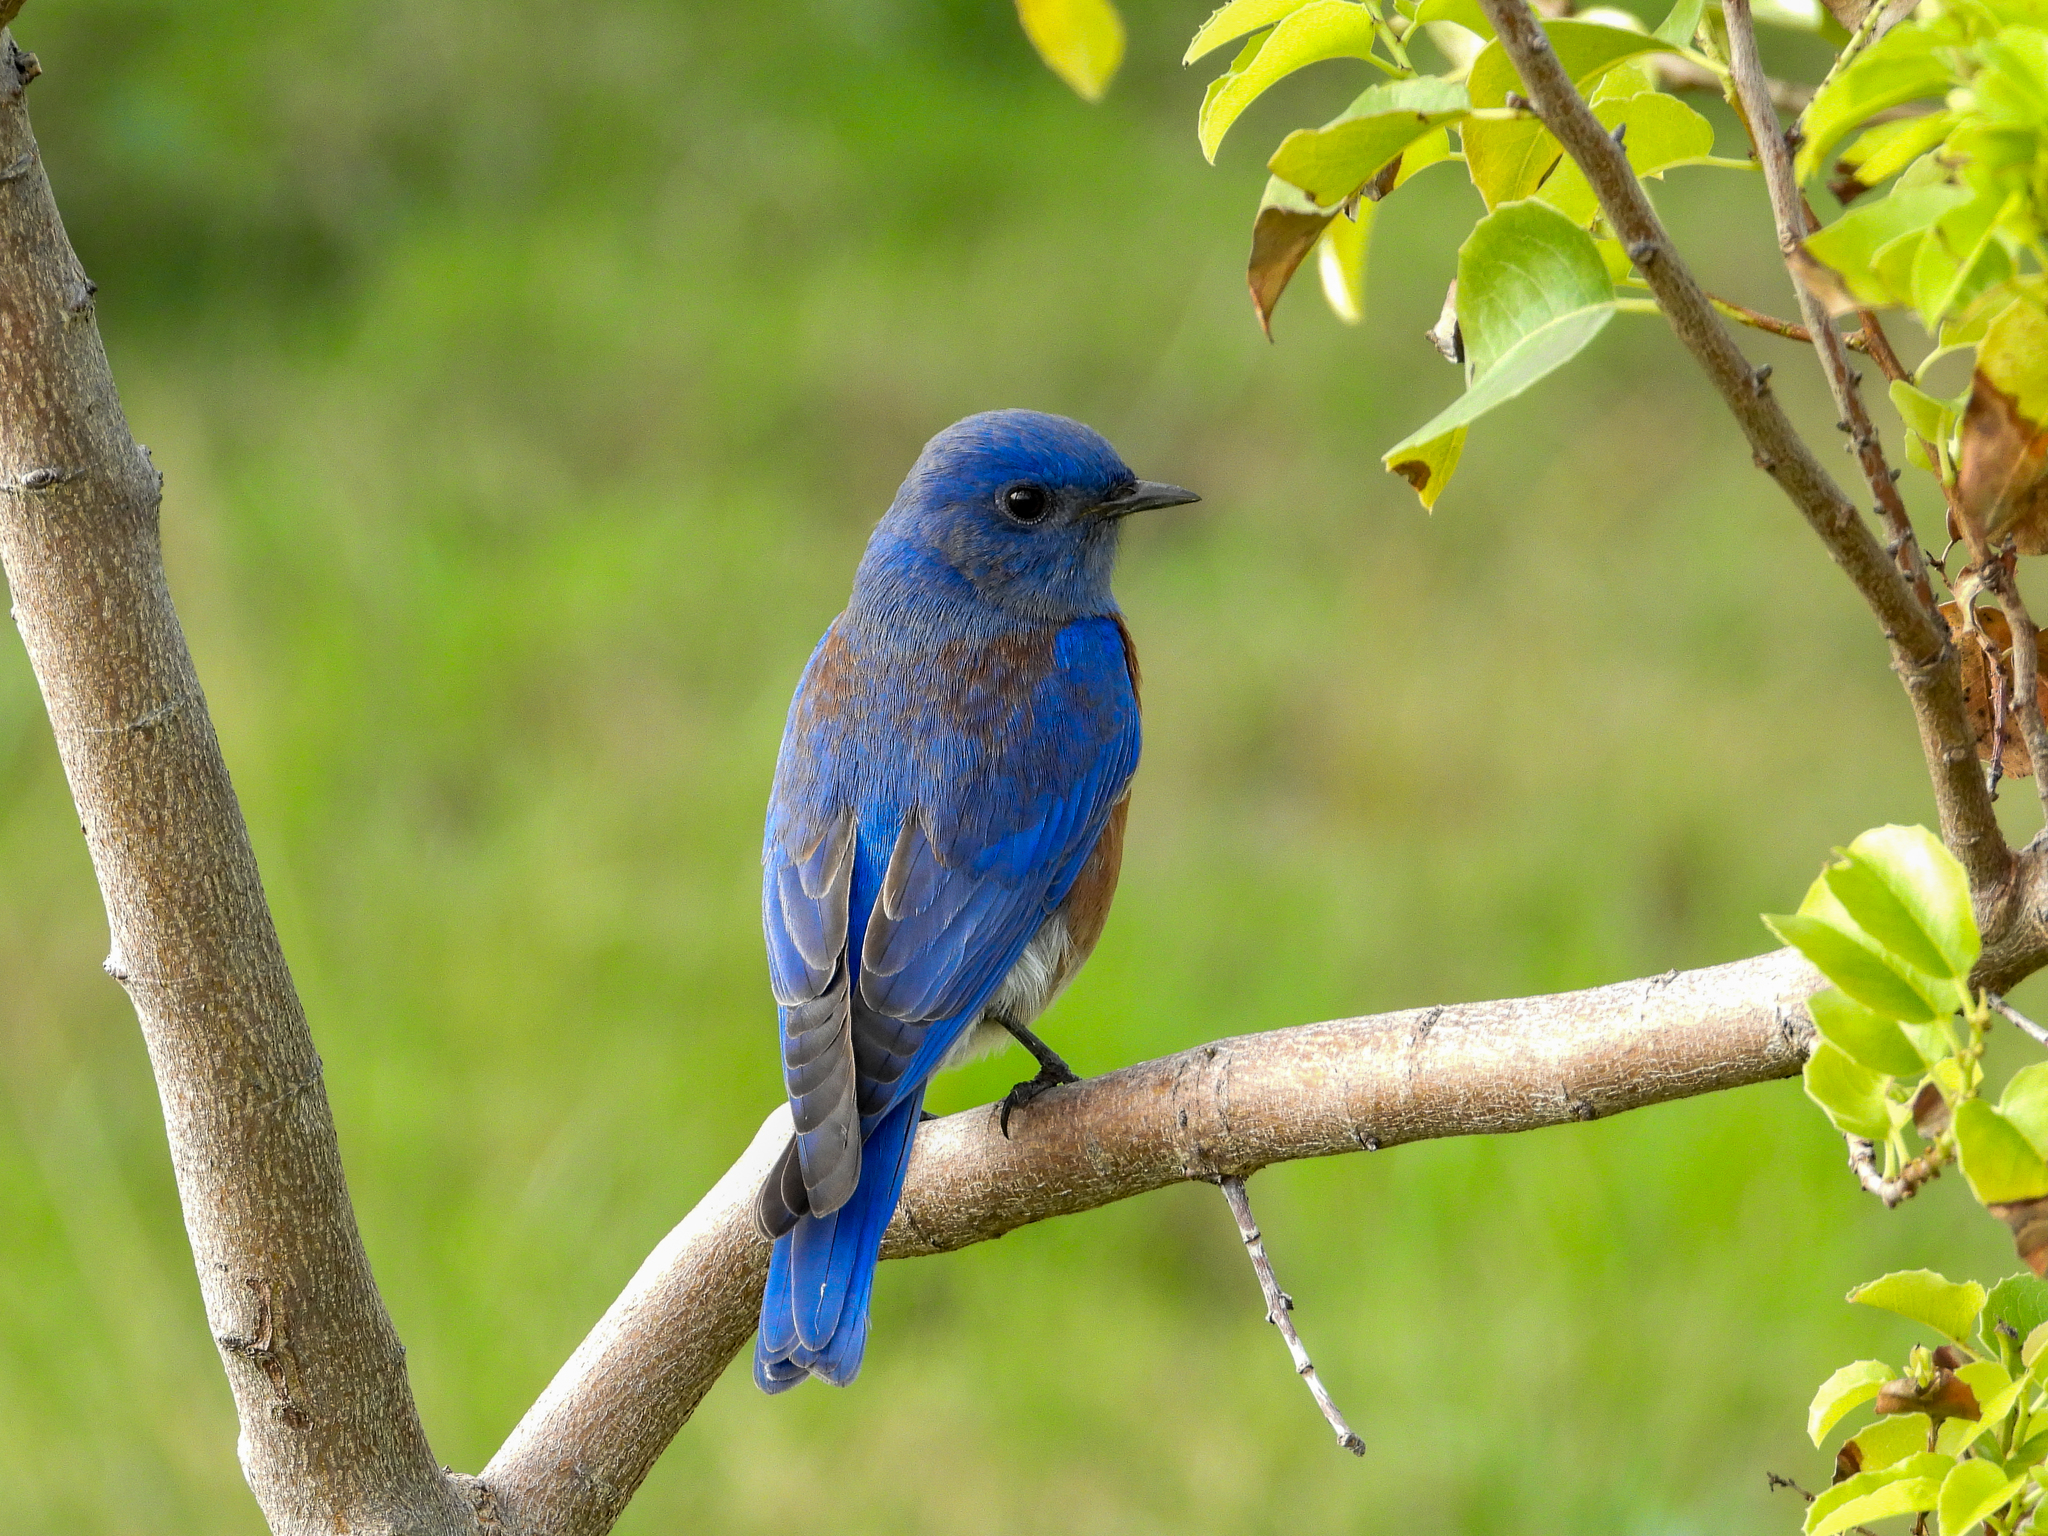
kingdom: Animalia
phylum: Chordata
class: Aves
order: Passeriformes
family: Turdidae
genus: Sialia
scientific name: Sialia mexicana
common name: Western bluebird
